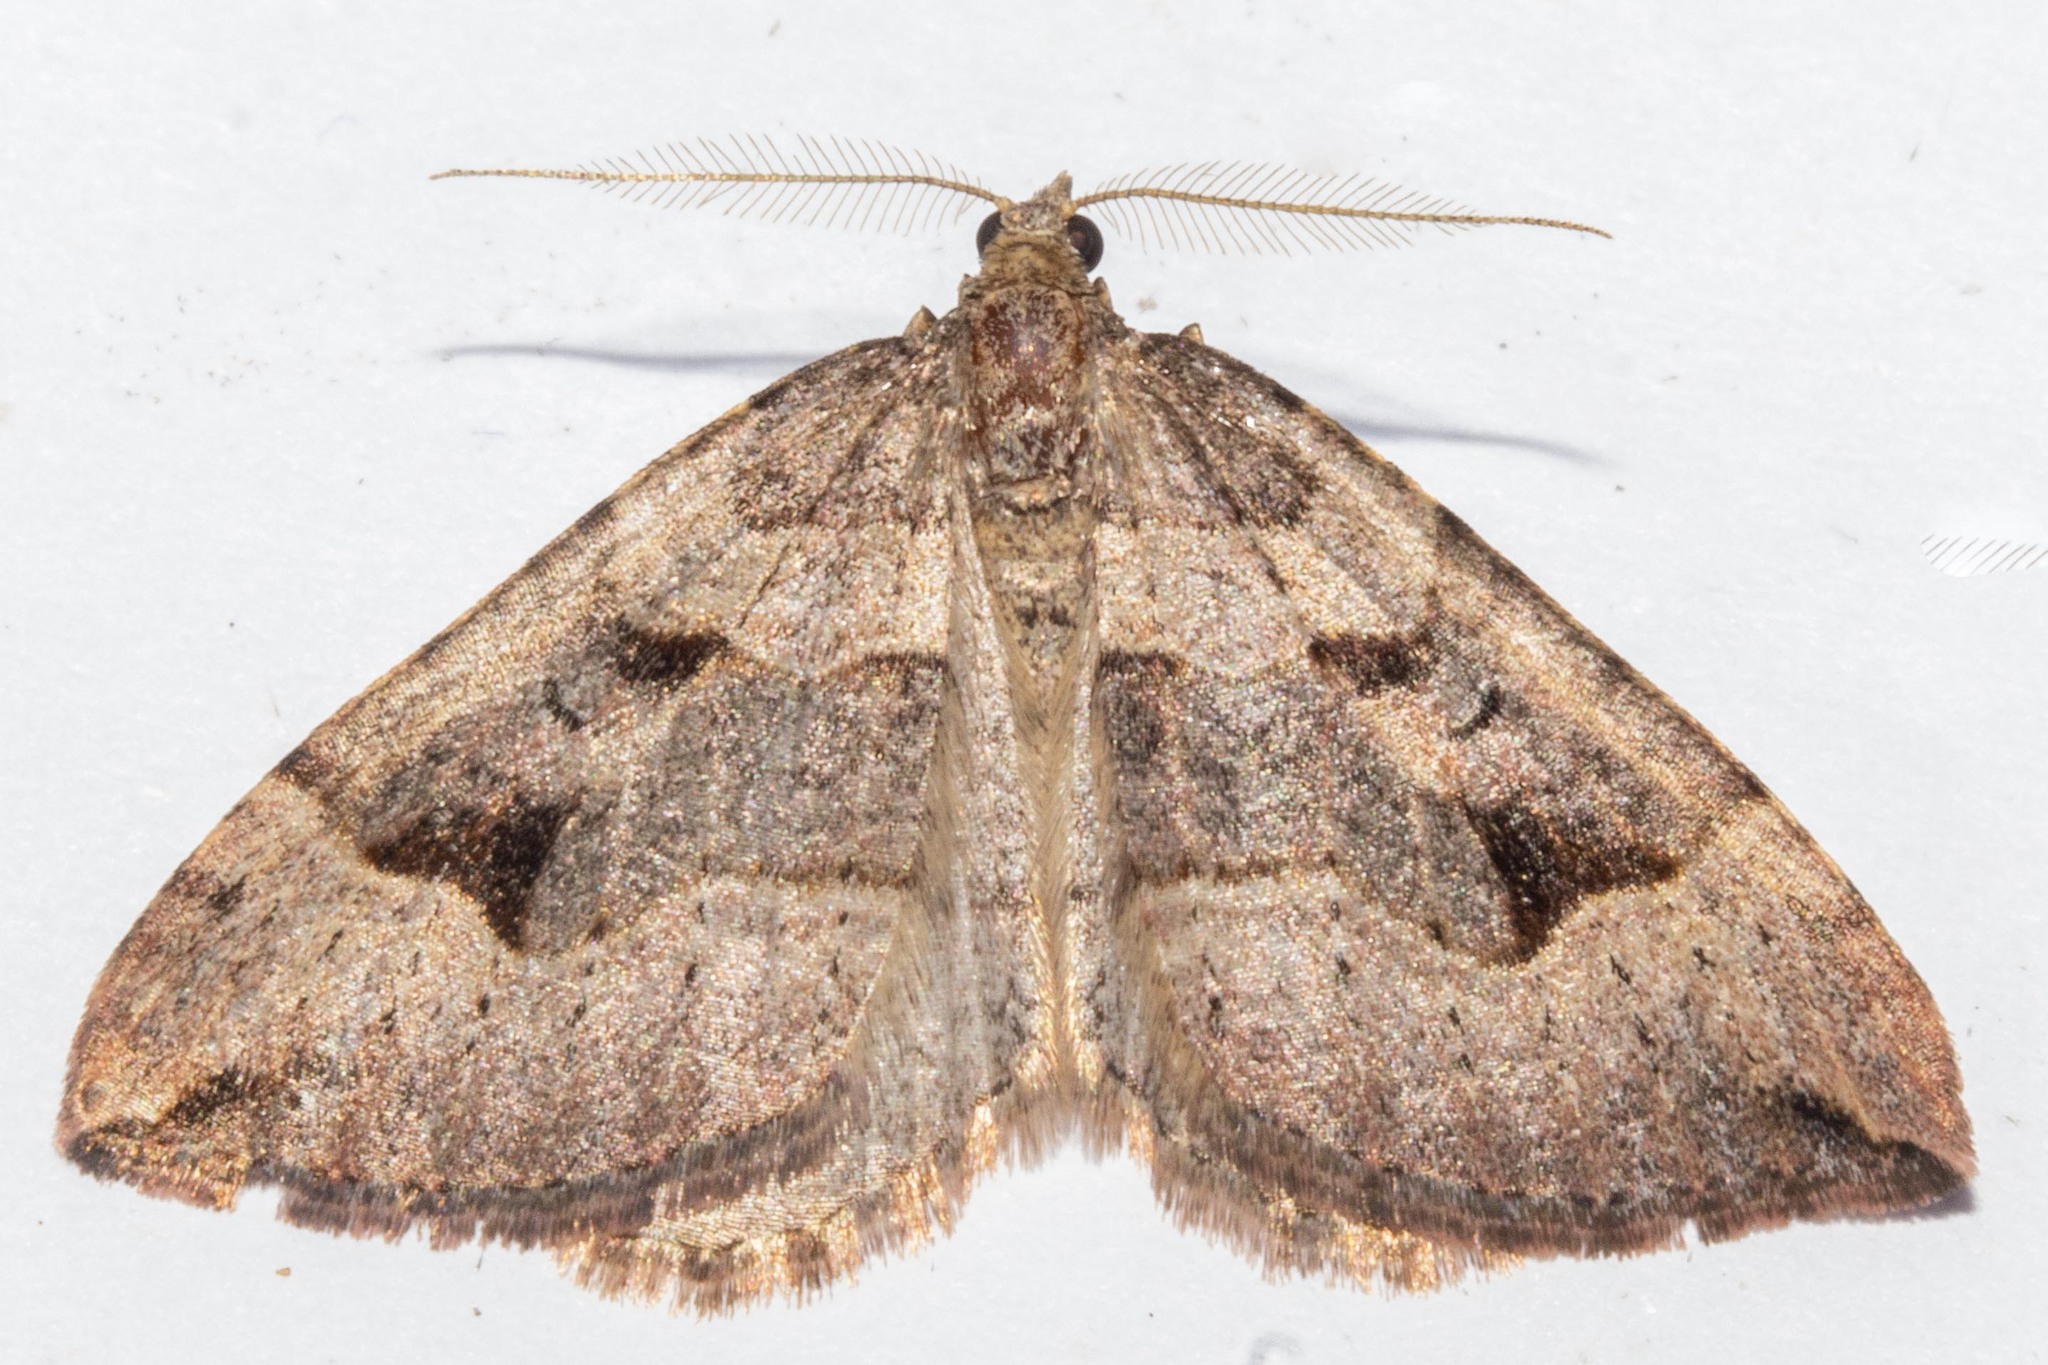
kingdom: Animalia
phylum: Arthropoda
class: Insecta
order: Lepidoptera
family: Geometridae
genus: Epyaxa
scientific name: Epyaxa rosearia
